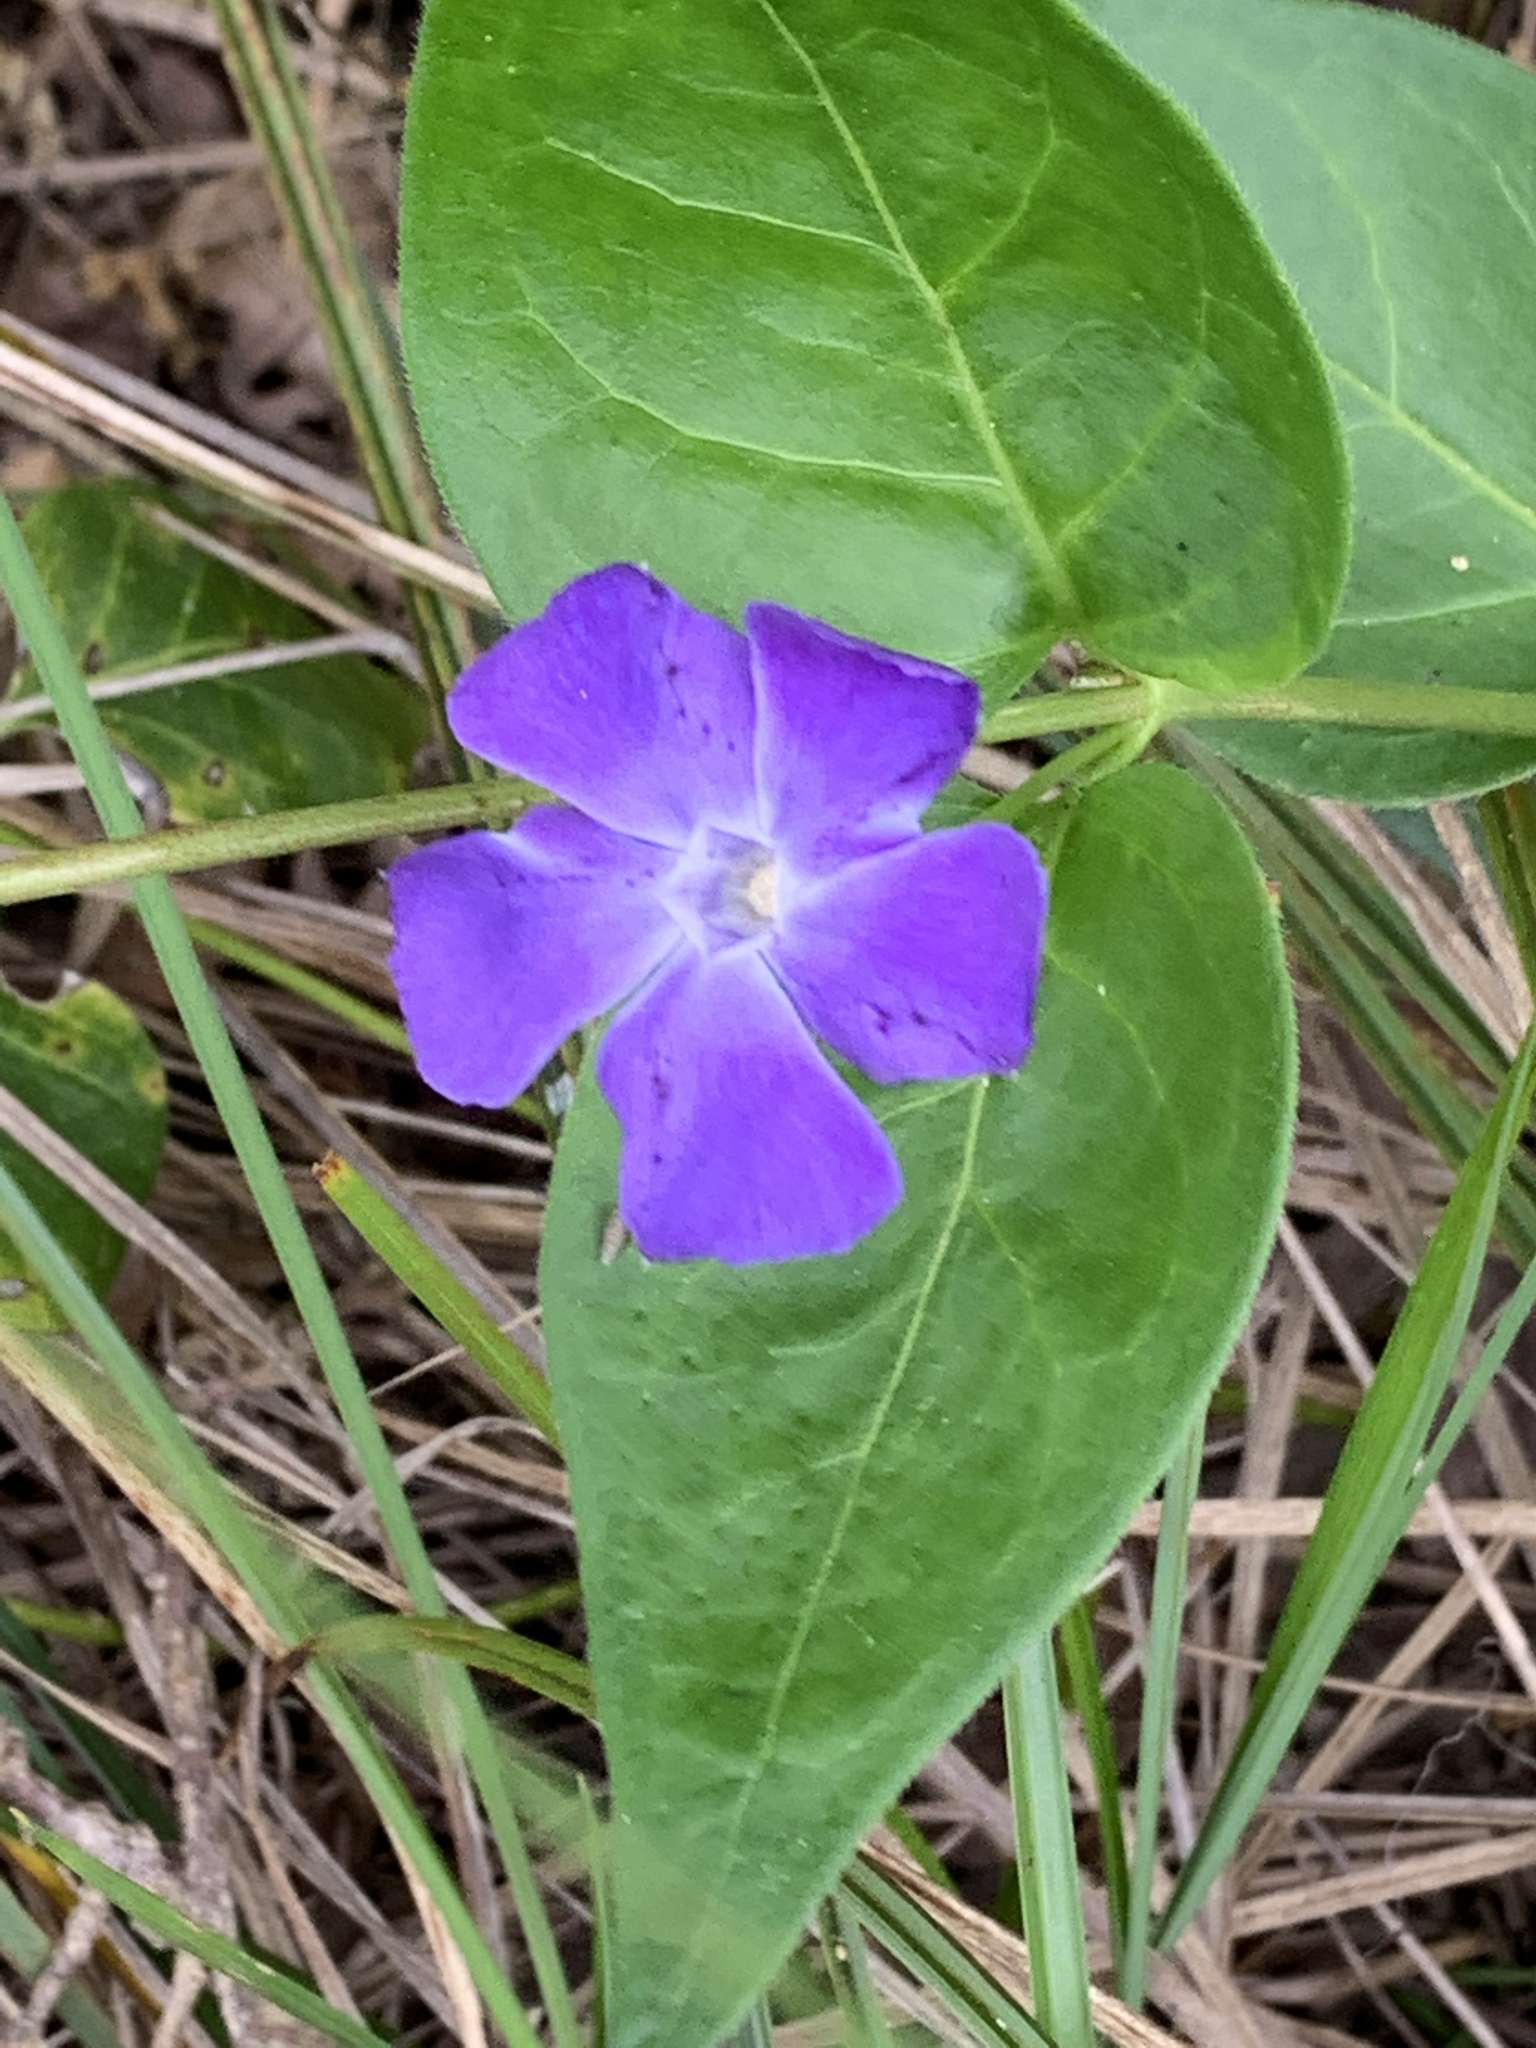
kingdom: Plantae
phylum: Tracheophyta
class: Magnoliopsida
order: Gentianales
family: Apocynaceae
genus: Vinca
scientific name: Vinca major
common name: Greater periwinkle
